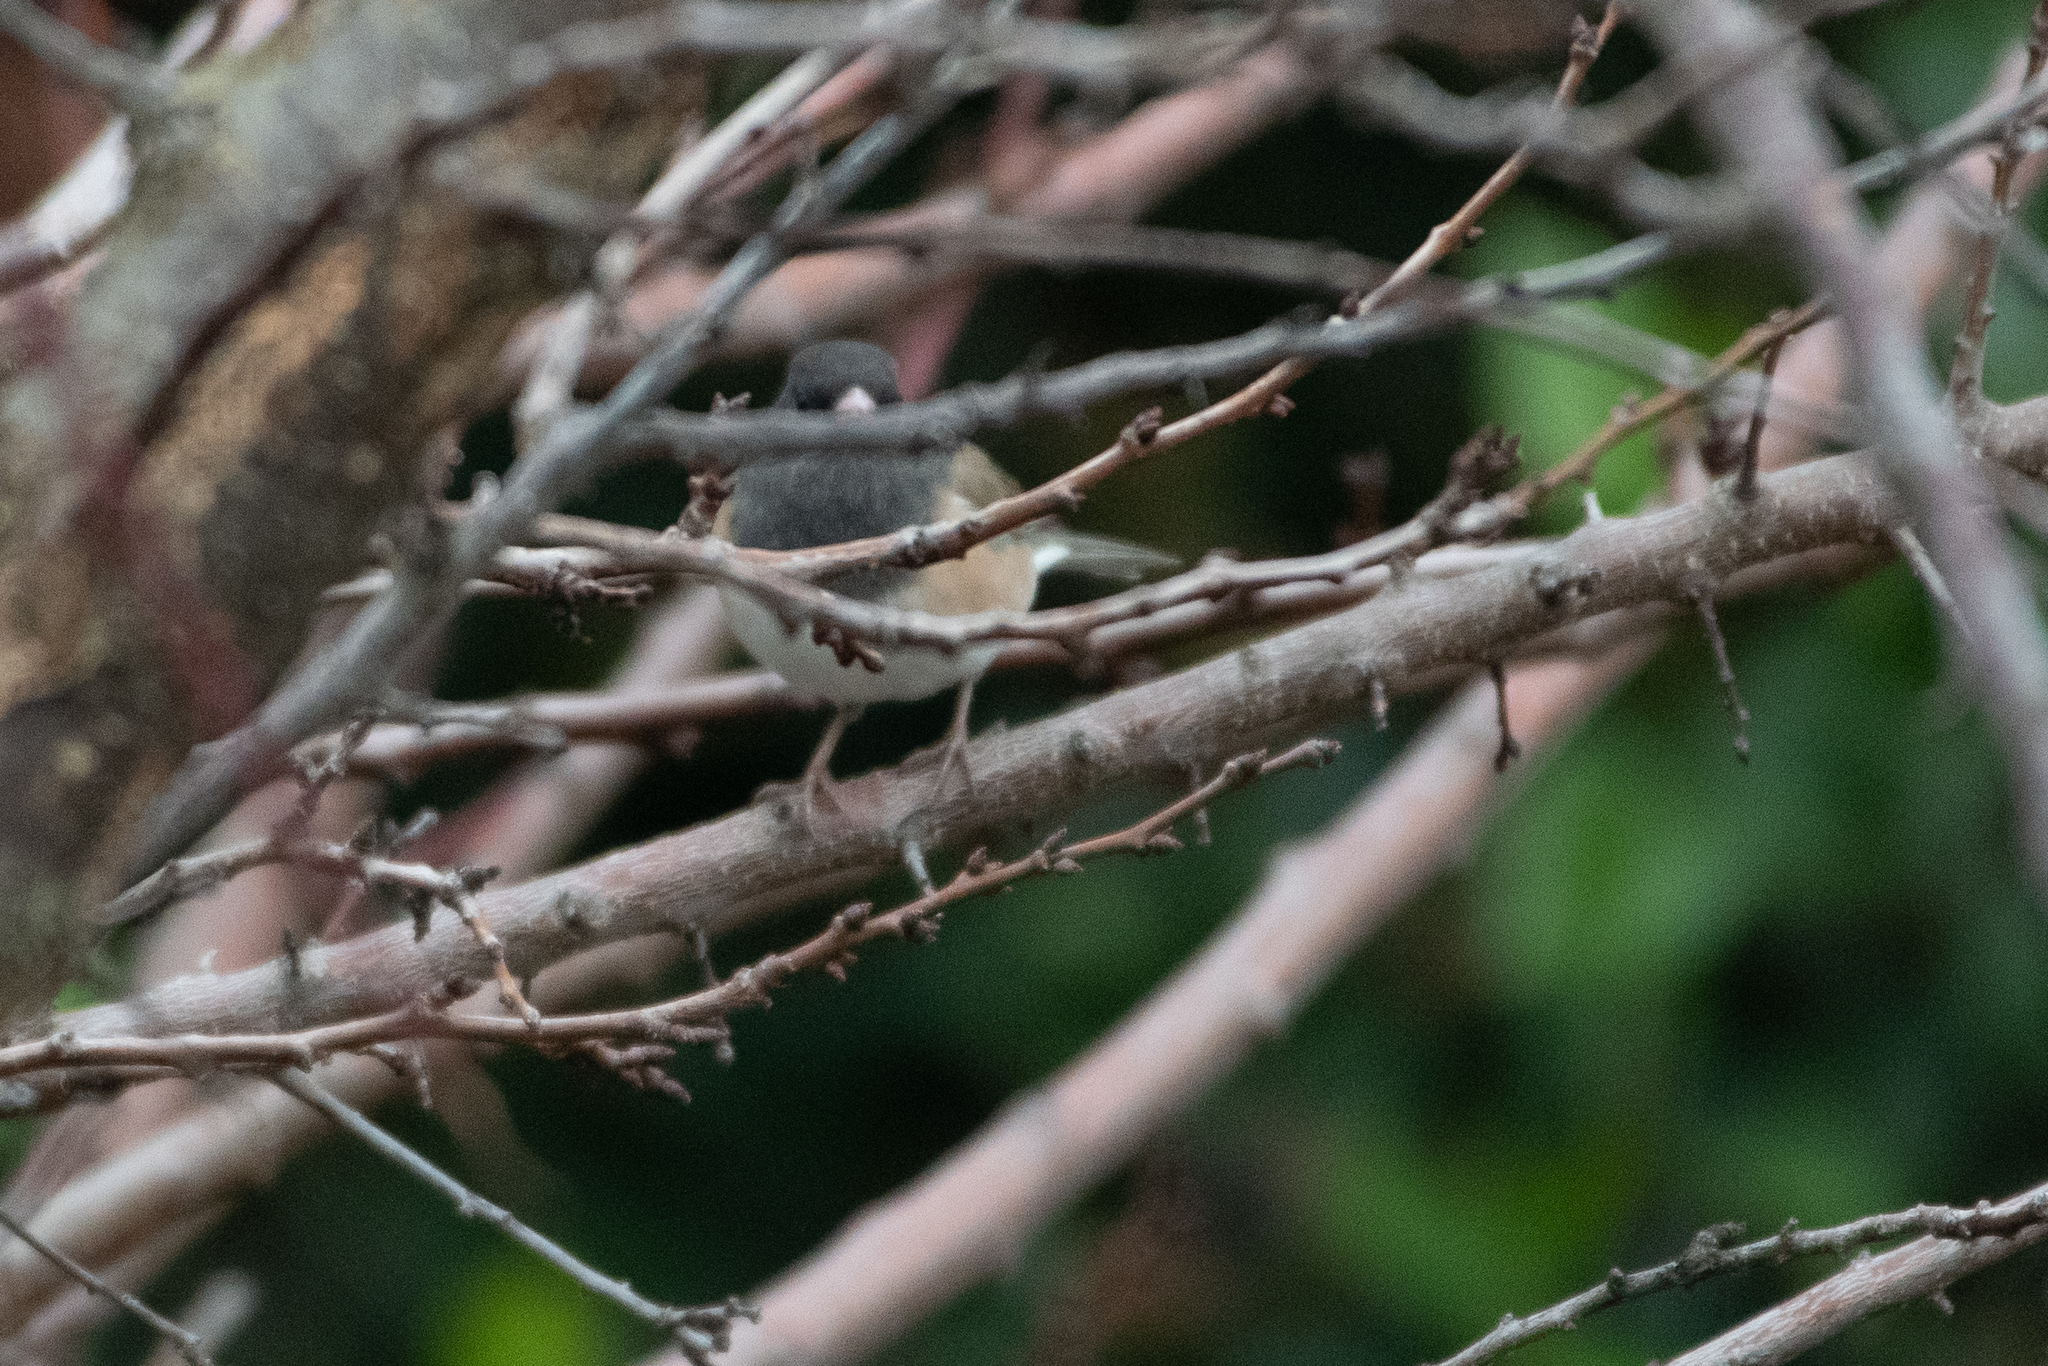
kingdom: Animalia
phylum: Chordata
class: Aves
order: Passeriformes
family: Passerellidae
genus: Junco
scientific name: Junco hyemalis
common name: Dark-eyed junco
